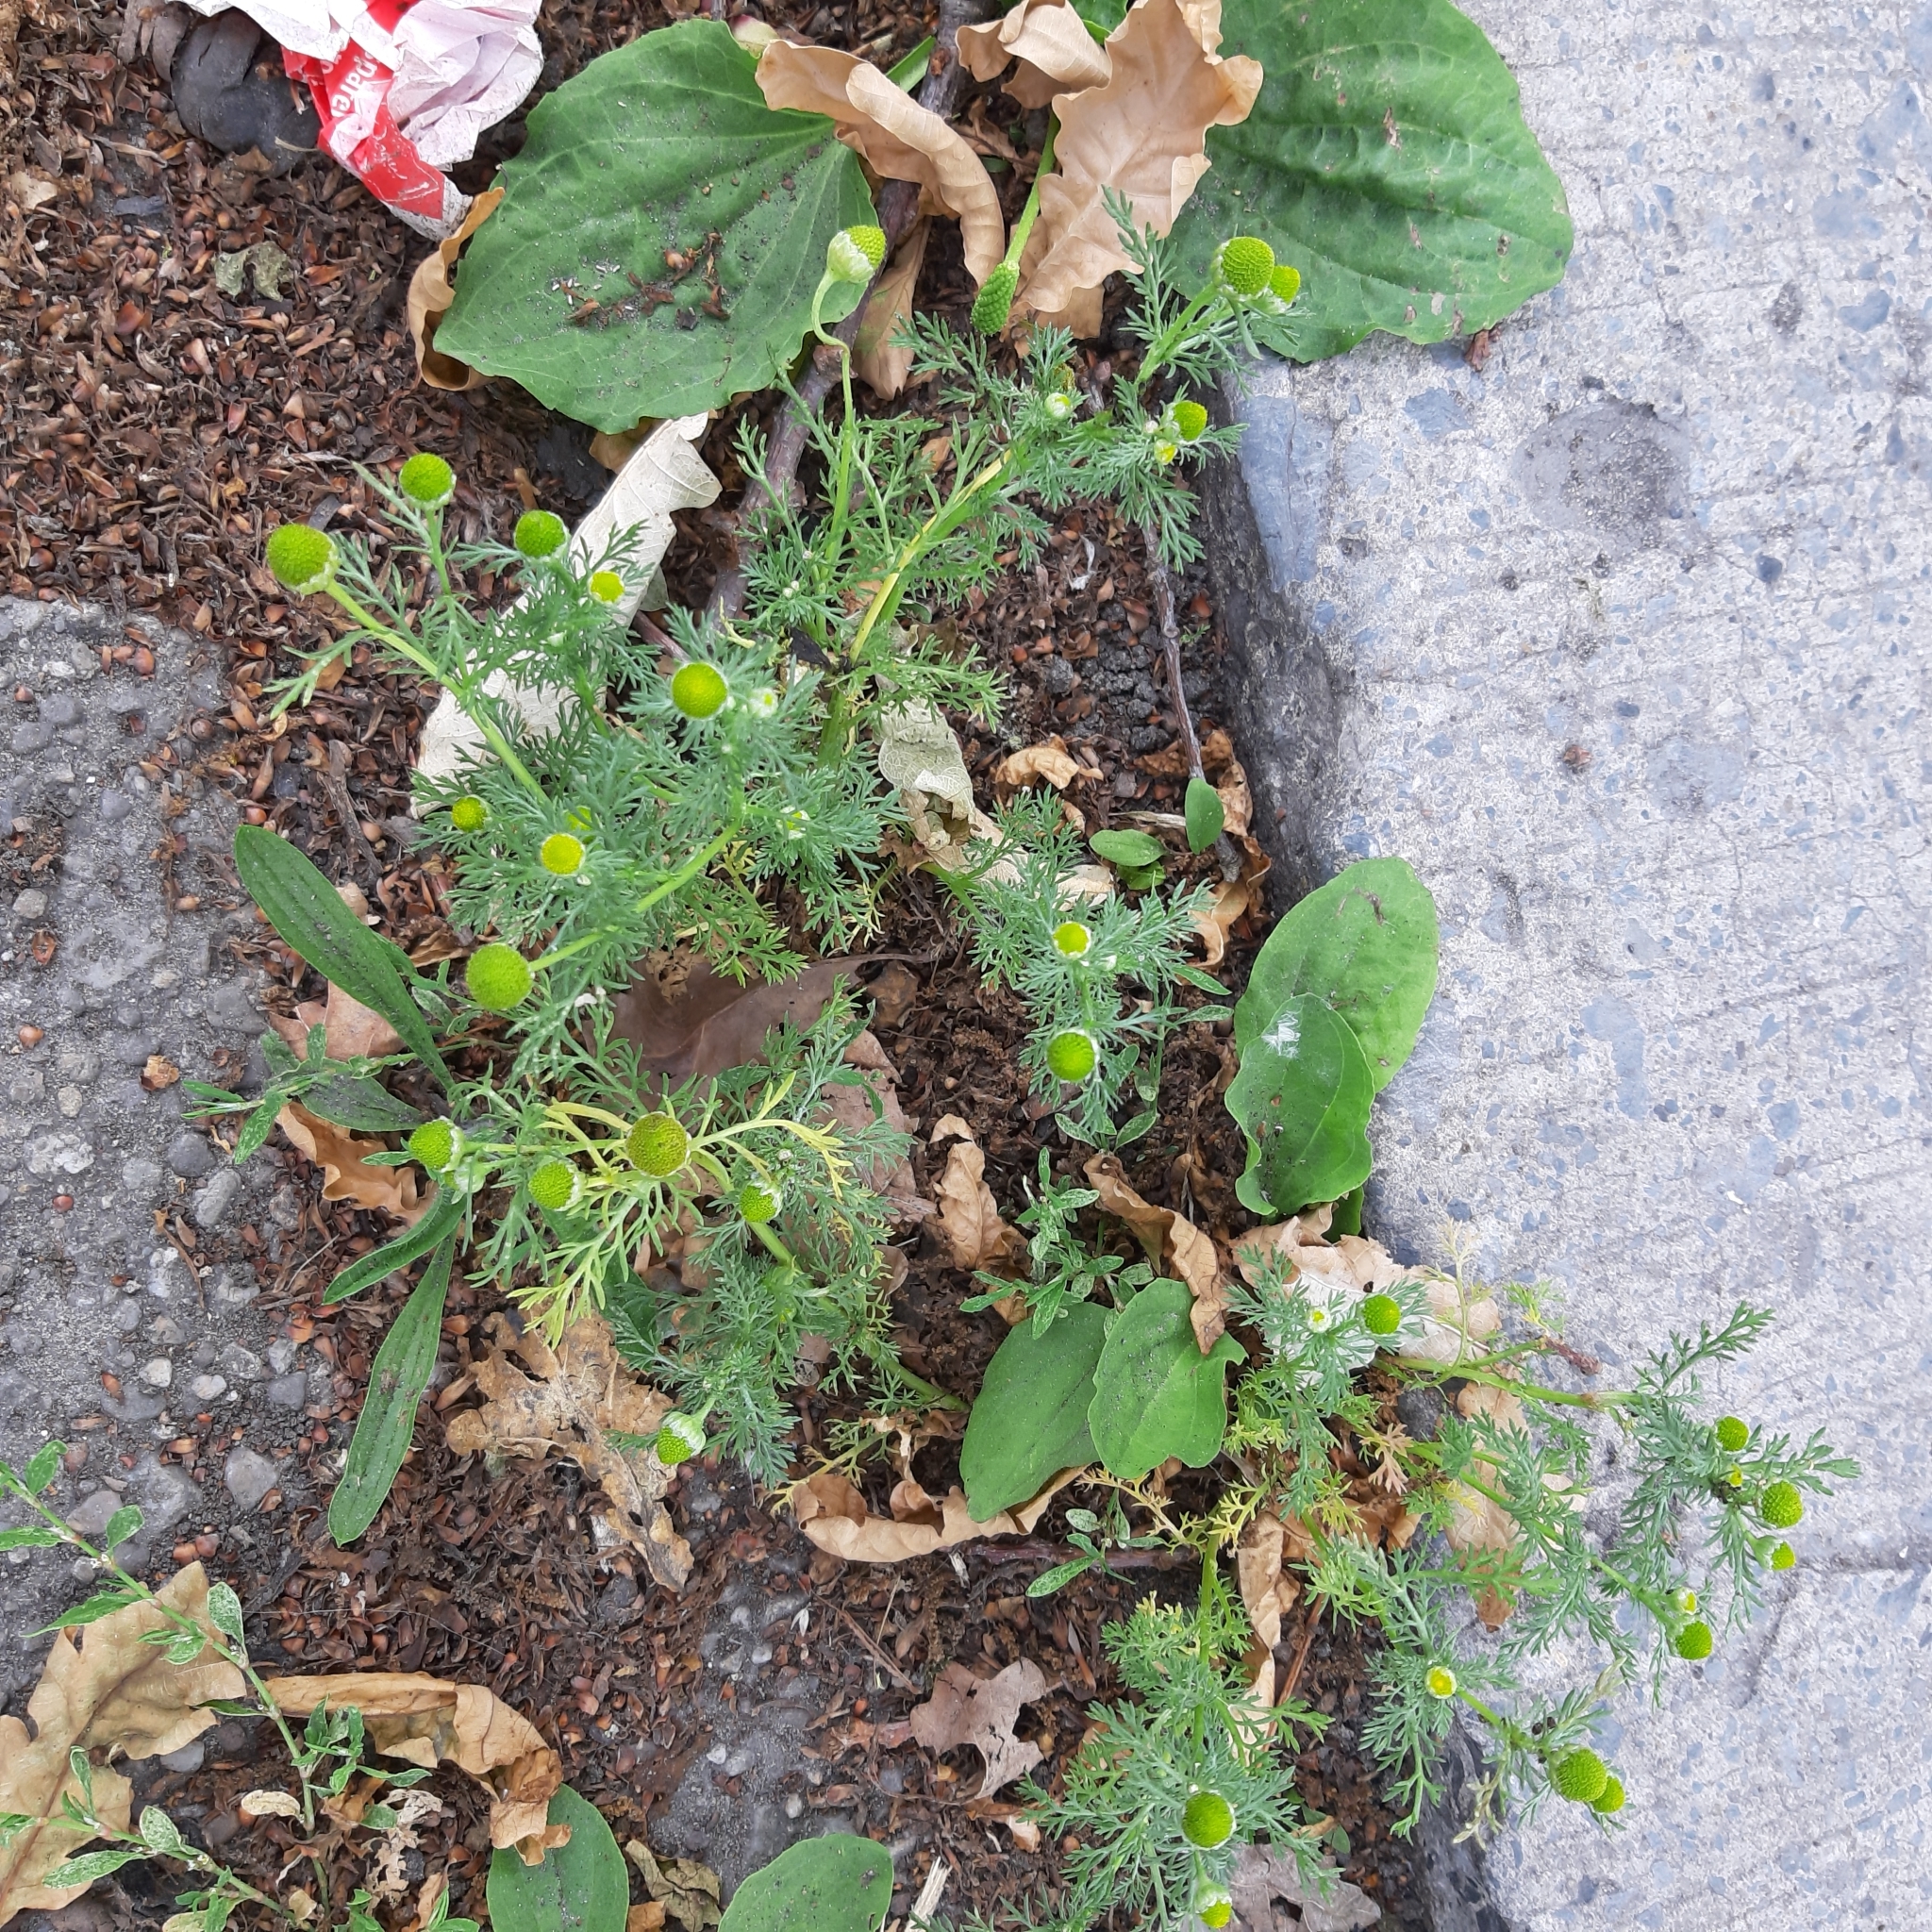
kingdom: Plantae
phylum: Tracheophyta
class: Magnoliopsida
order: Asterales
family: Asteraceae
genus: Matricaria
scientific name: Matricaria discoidea
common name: Disc mayweed
